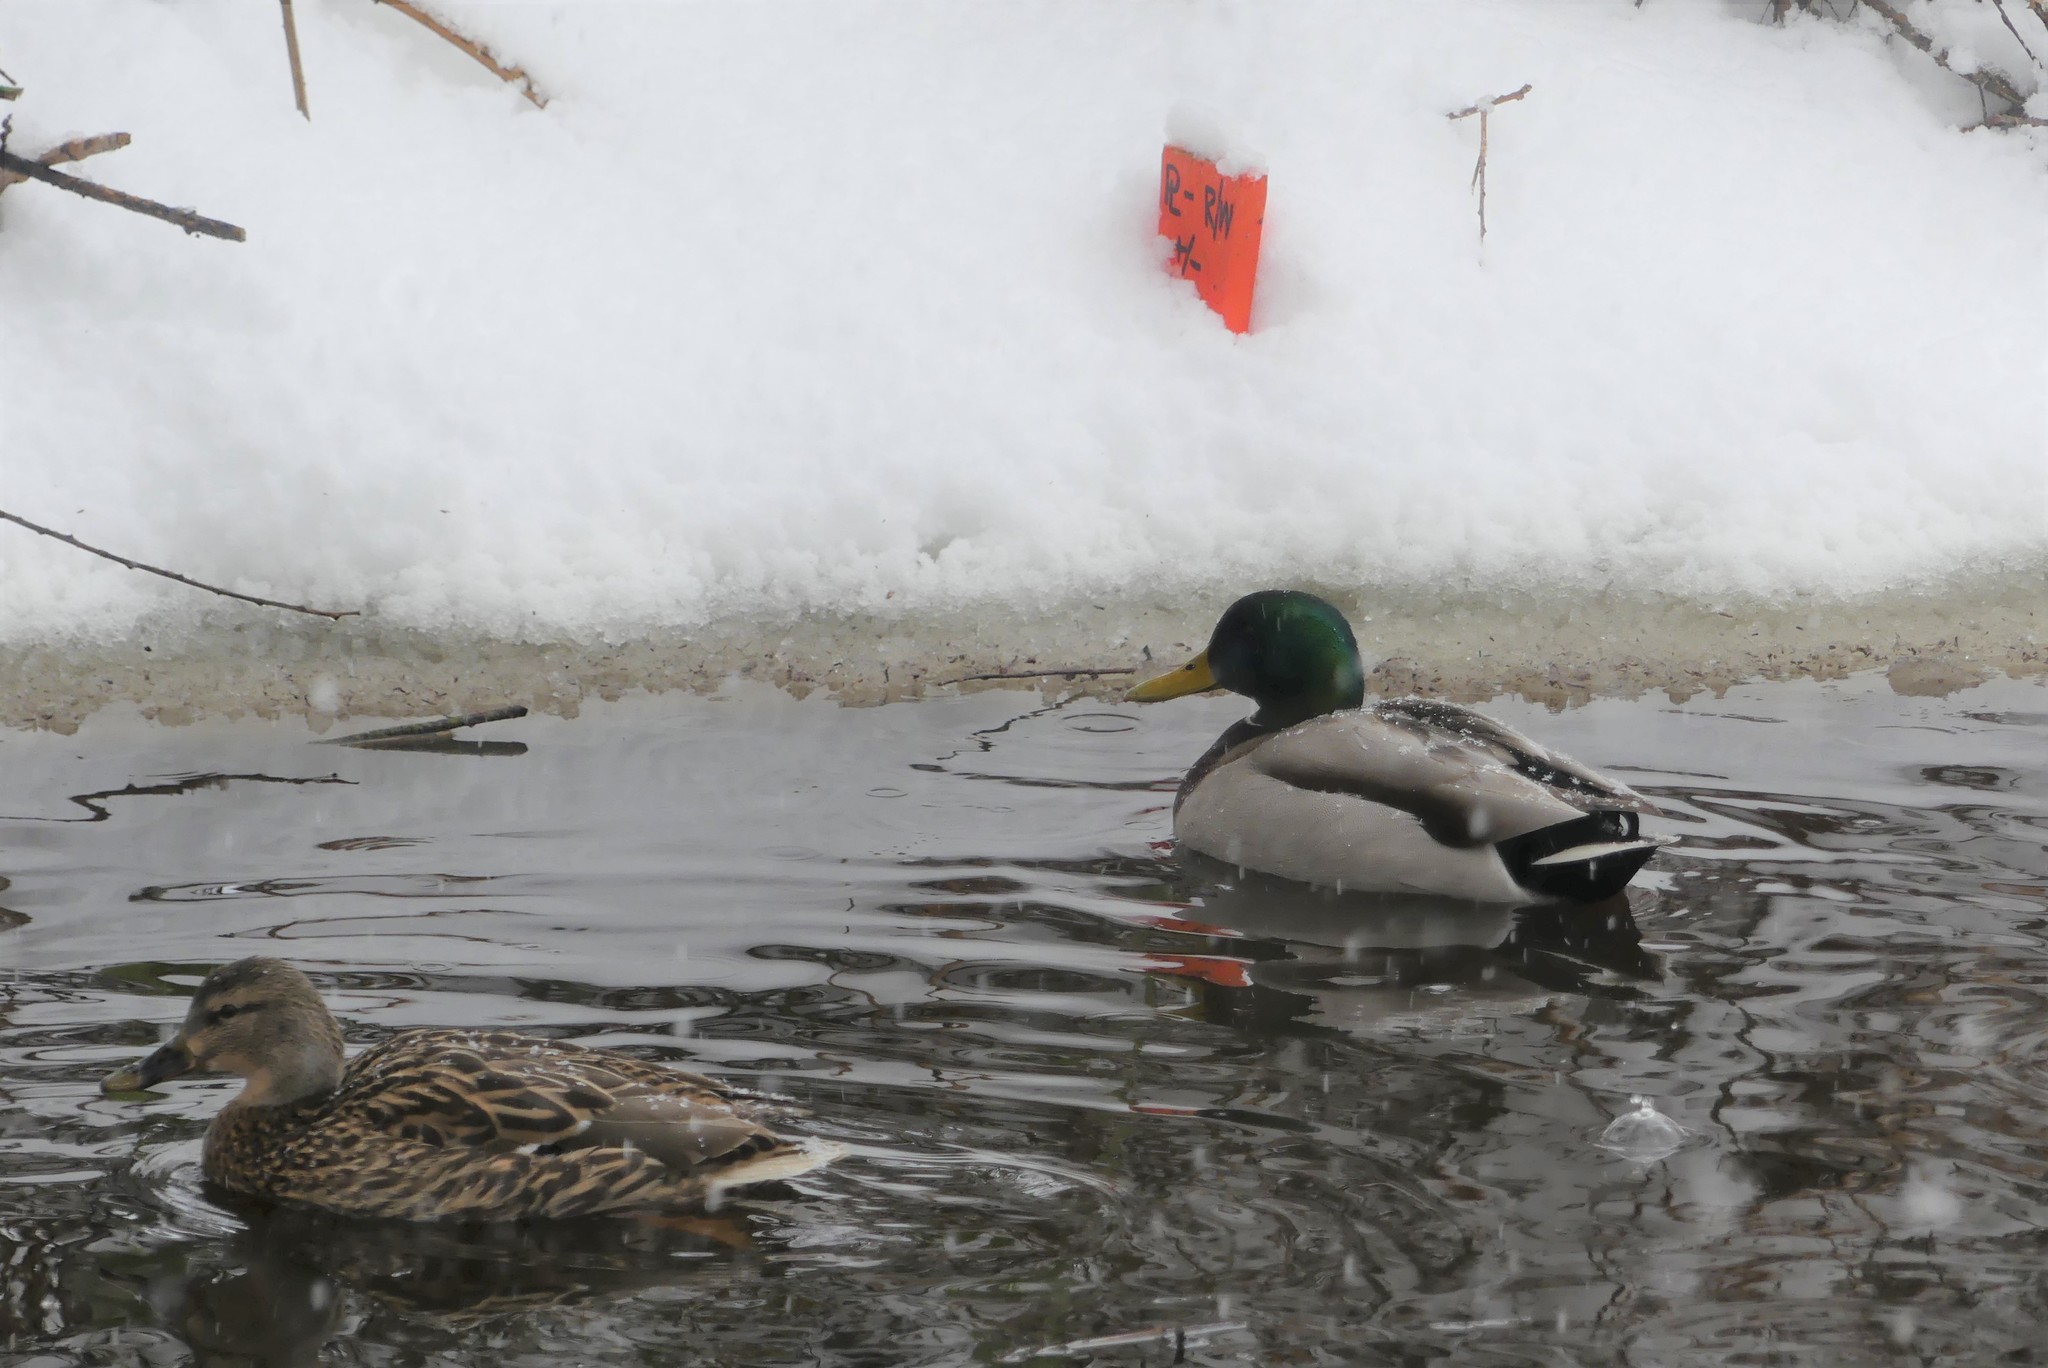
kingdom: Animalia
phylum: Chordata
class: Aves
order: Anseriformes
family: Anatidae
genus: Anas
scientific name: Anas platyrhynchos
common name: Mallard
